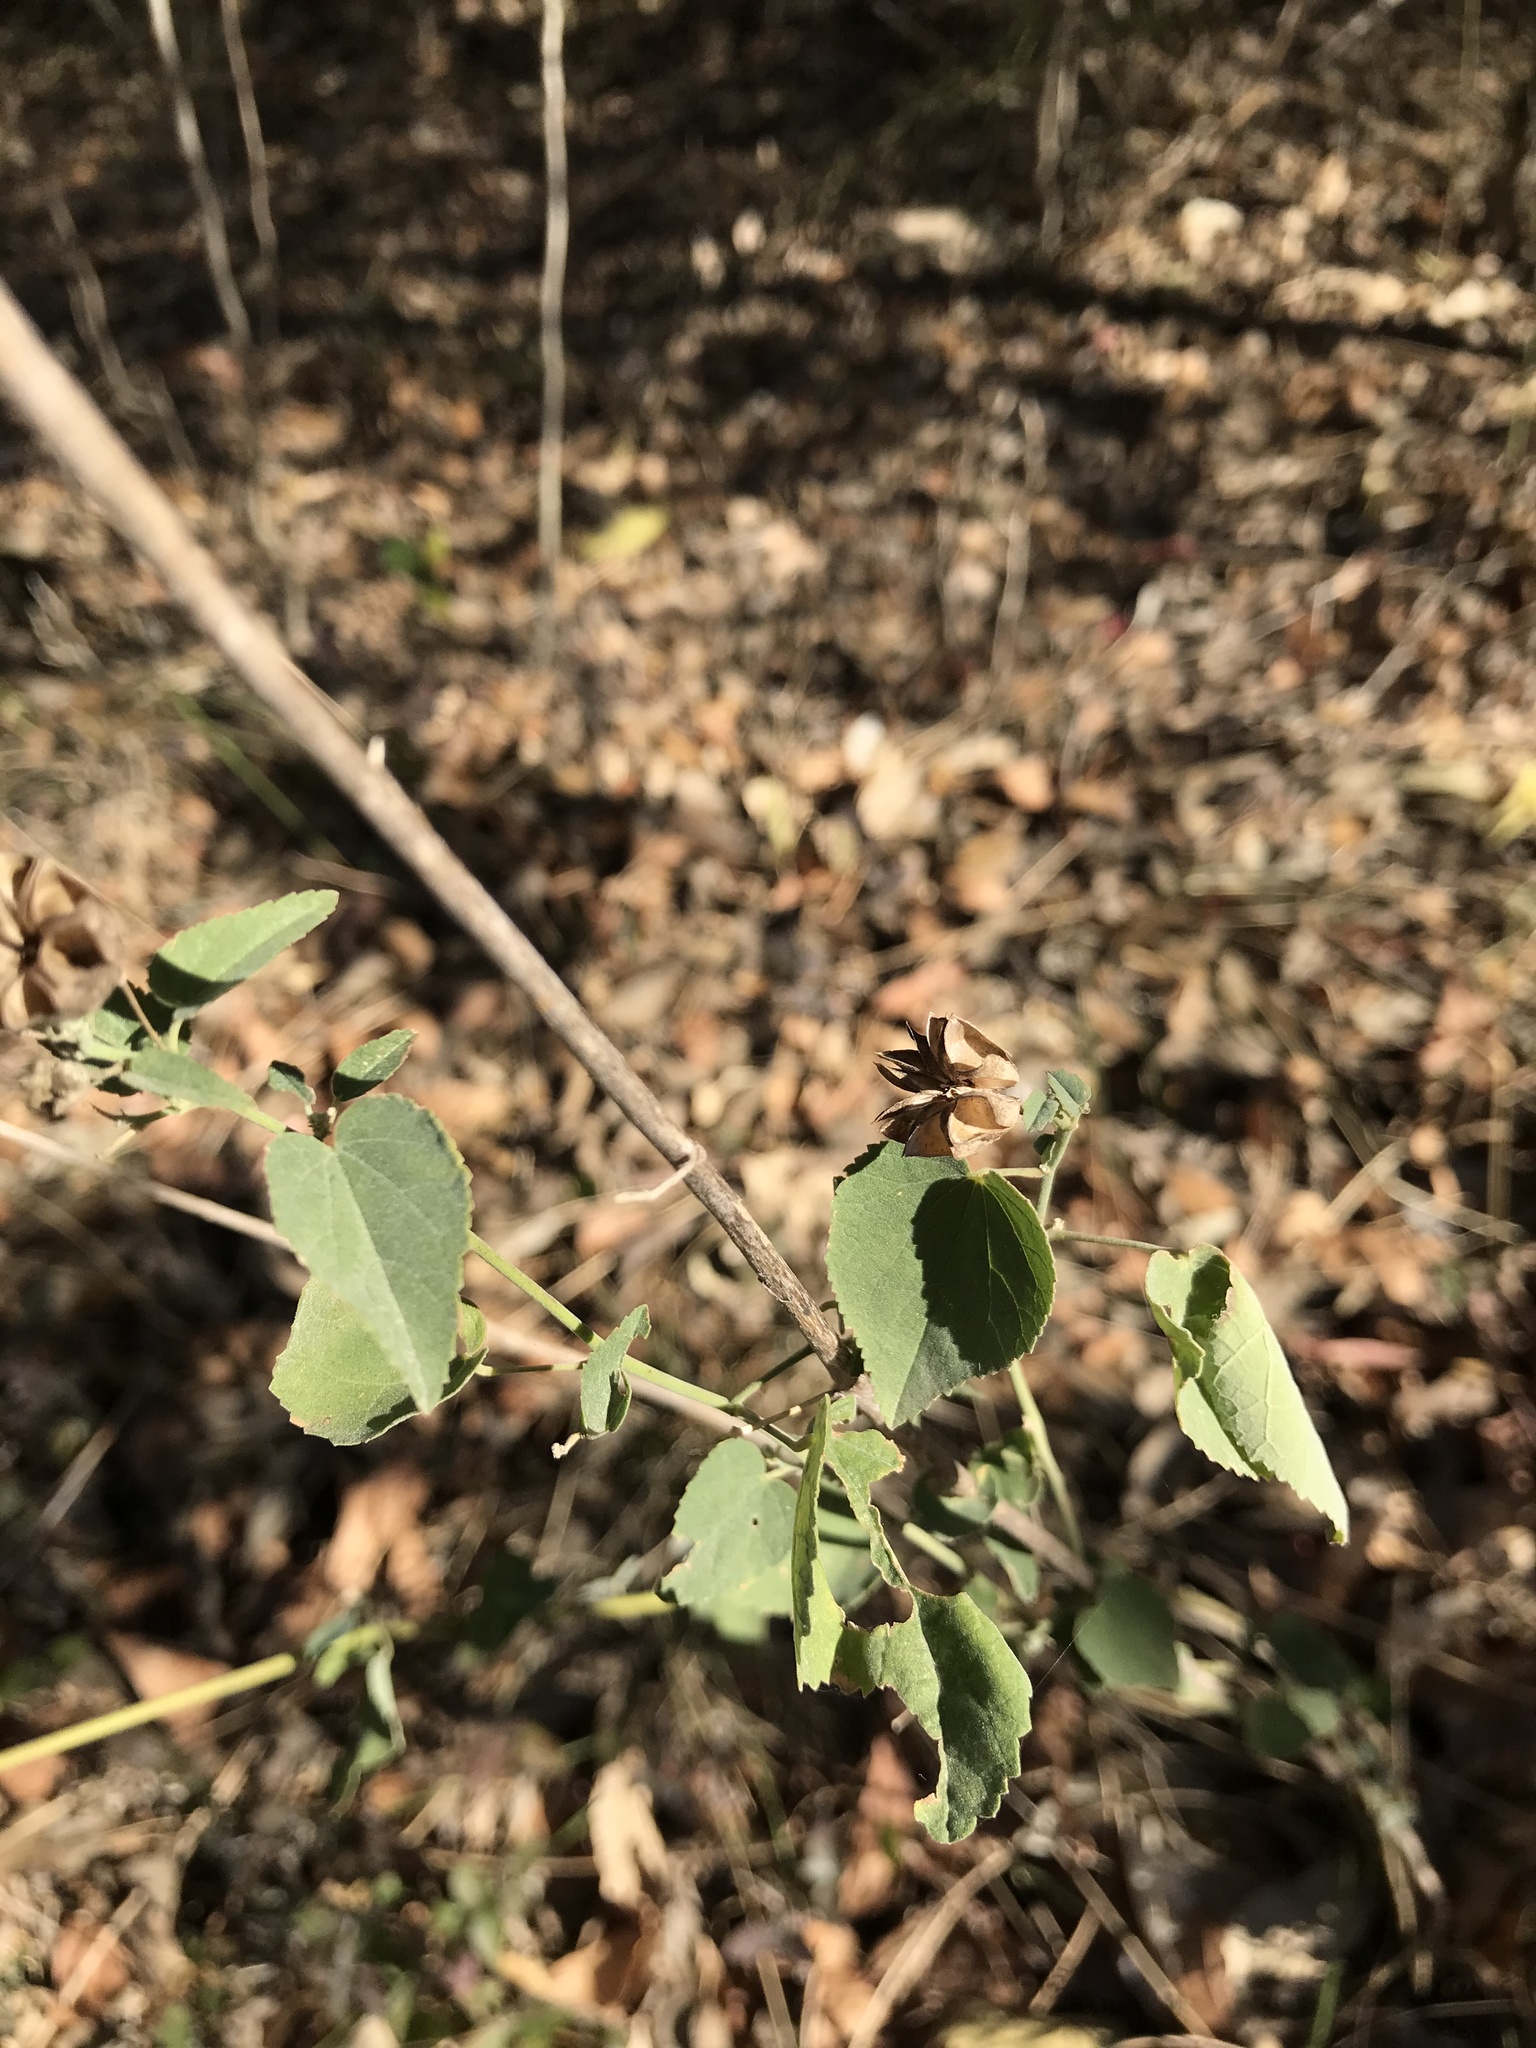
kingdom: Plantae
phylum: Tracheophyta
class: Magnoliopsida
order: Malvales
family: Malvaceae
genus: Abutilon
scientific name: Abutilon fruticosum
